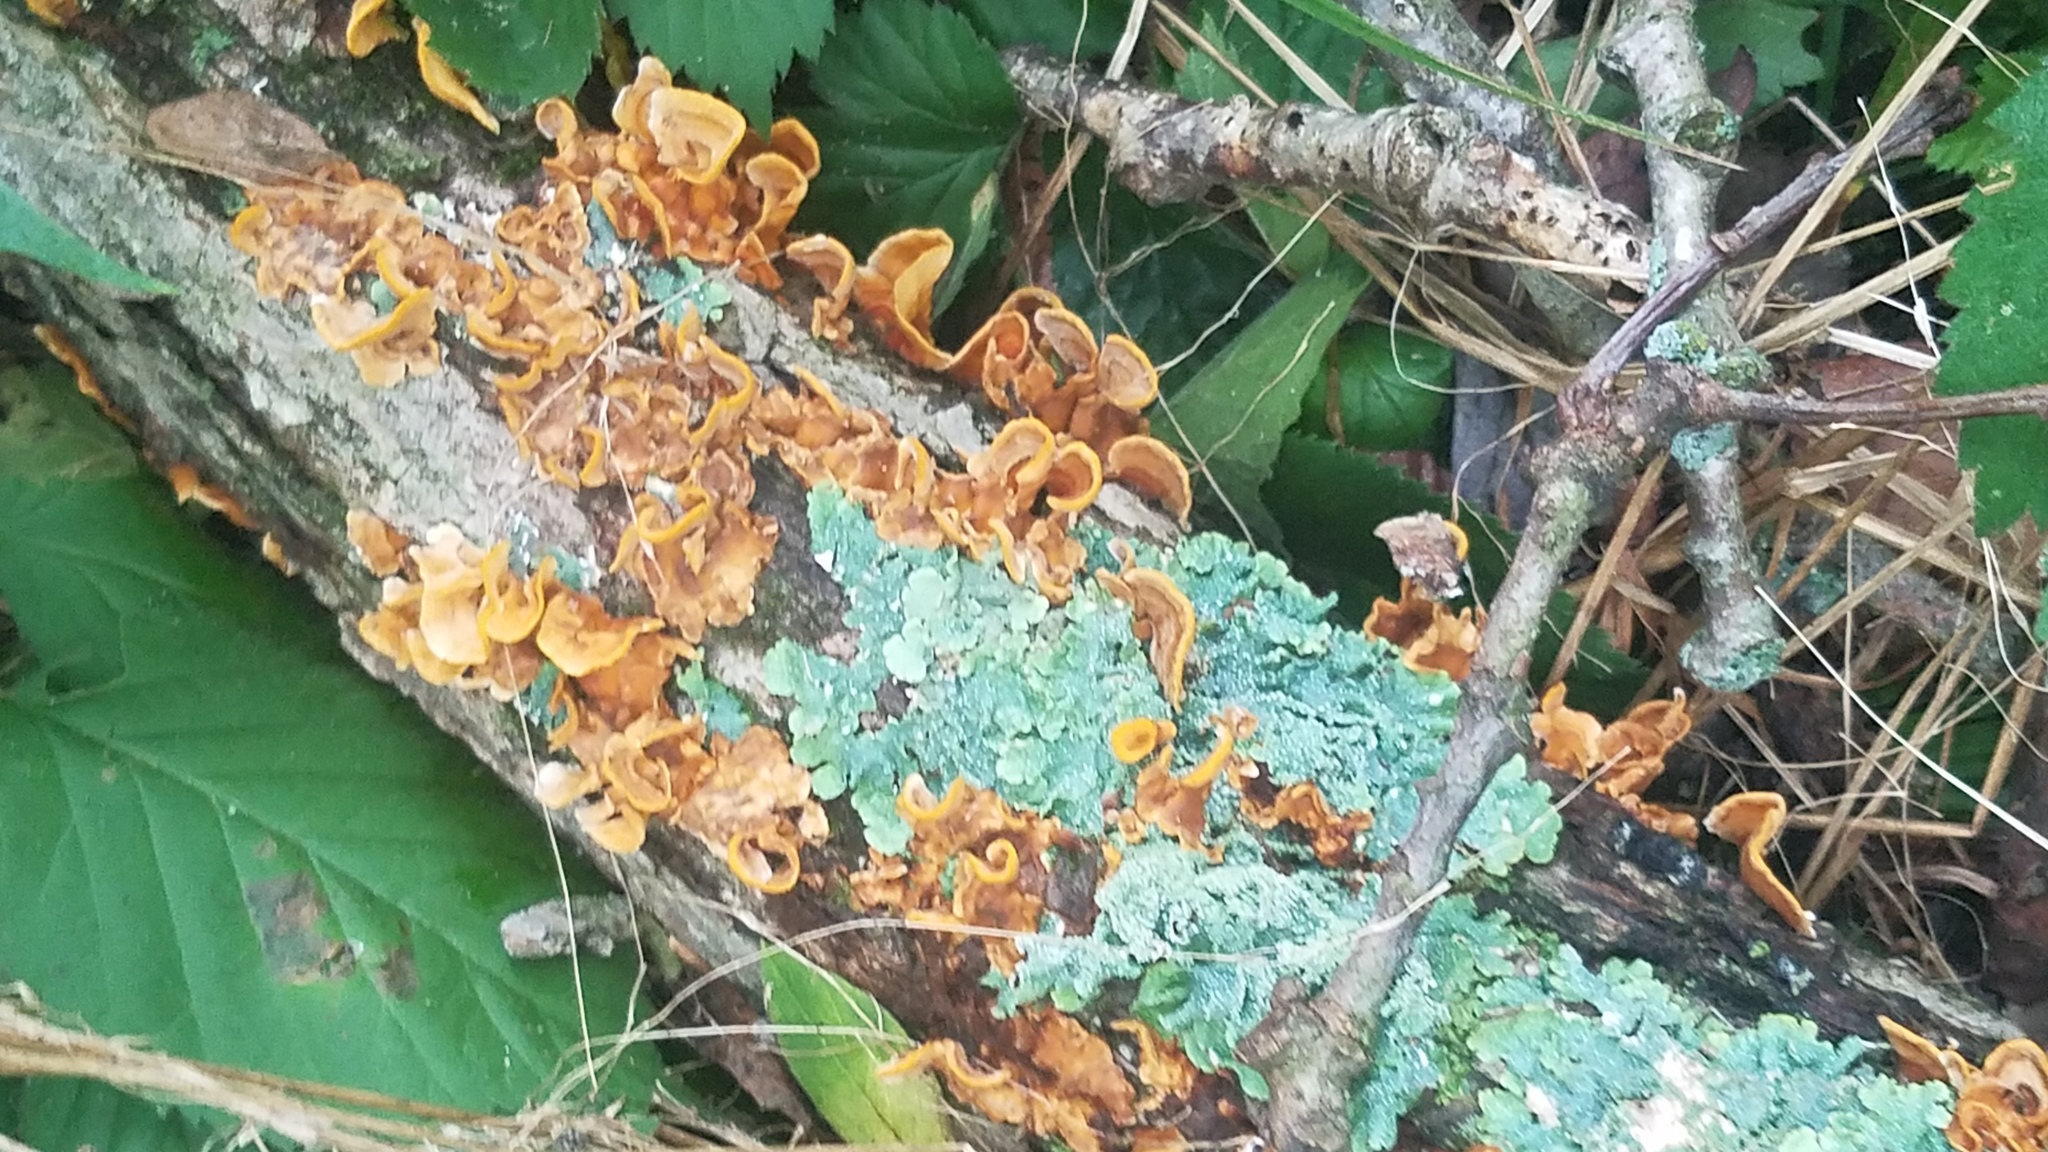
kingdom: Fungi
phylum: Basidiomycota
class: Agaricomycetes
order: Russulales
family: Stereaceae
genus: Stereum
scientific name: Stereum complicatum
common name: Crowded parchment
